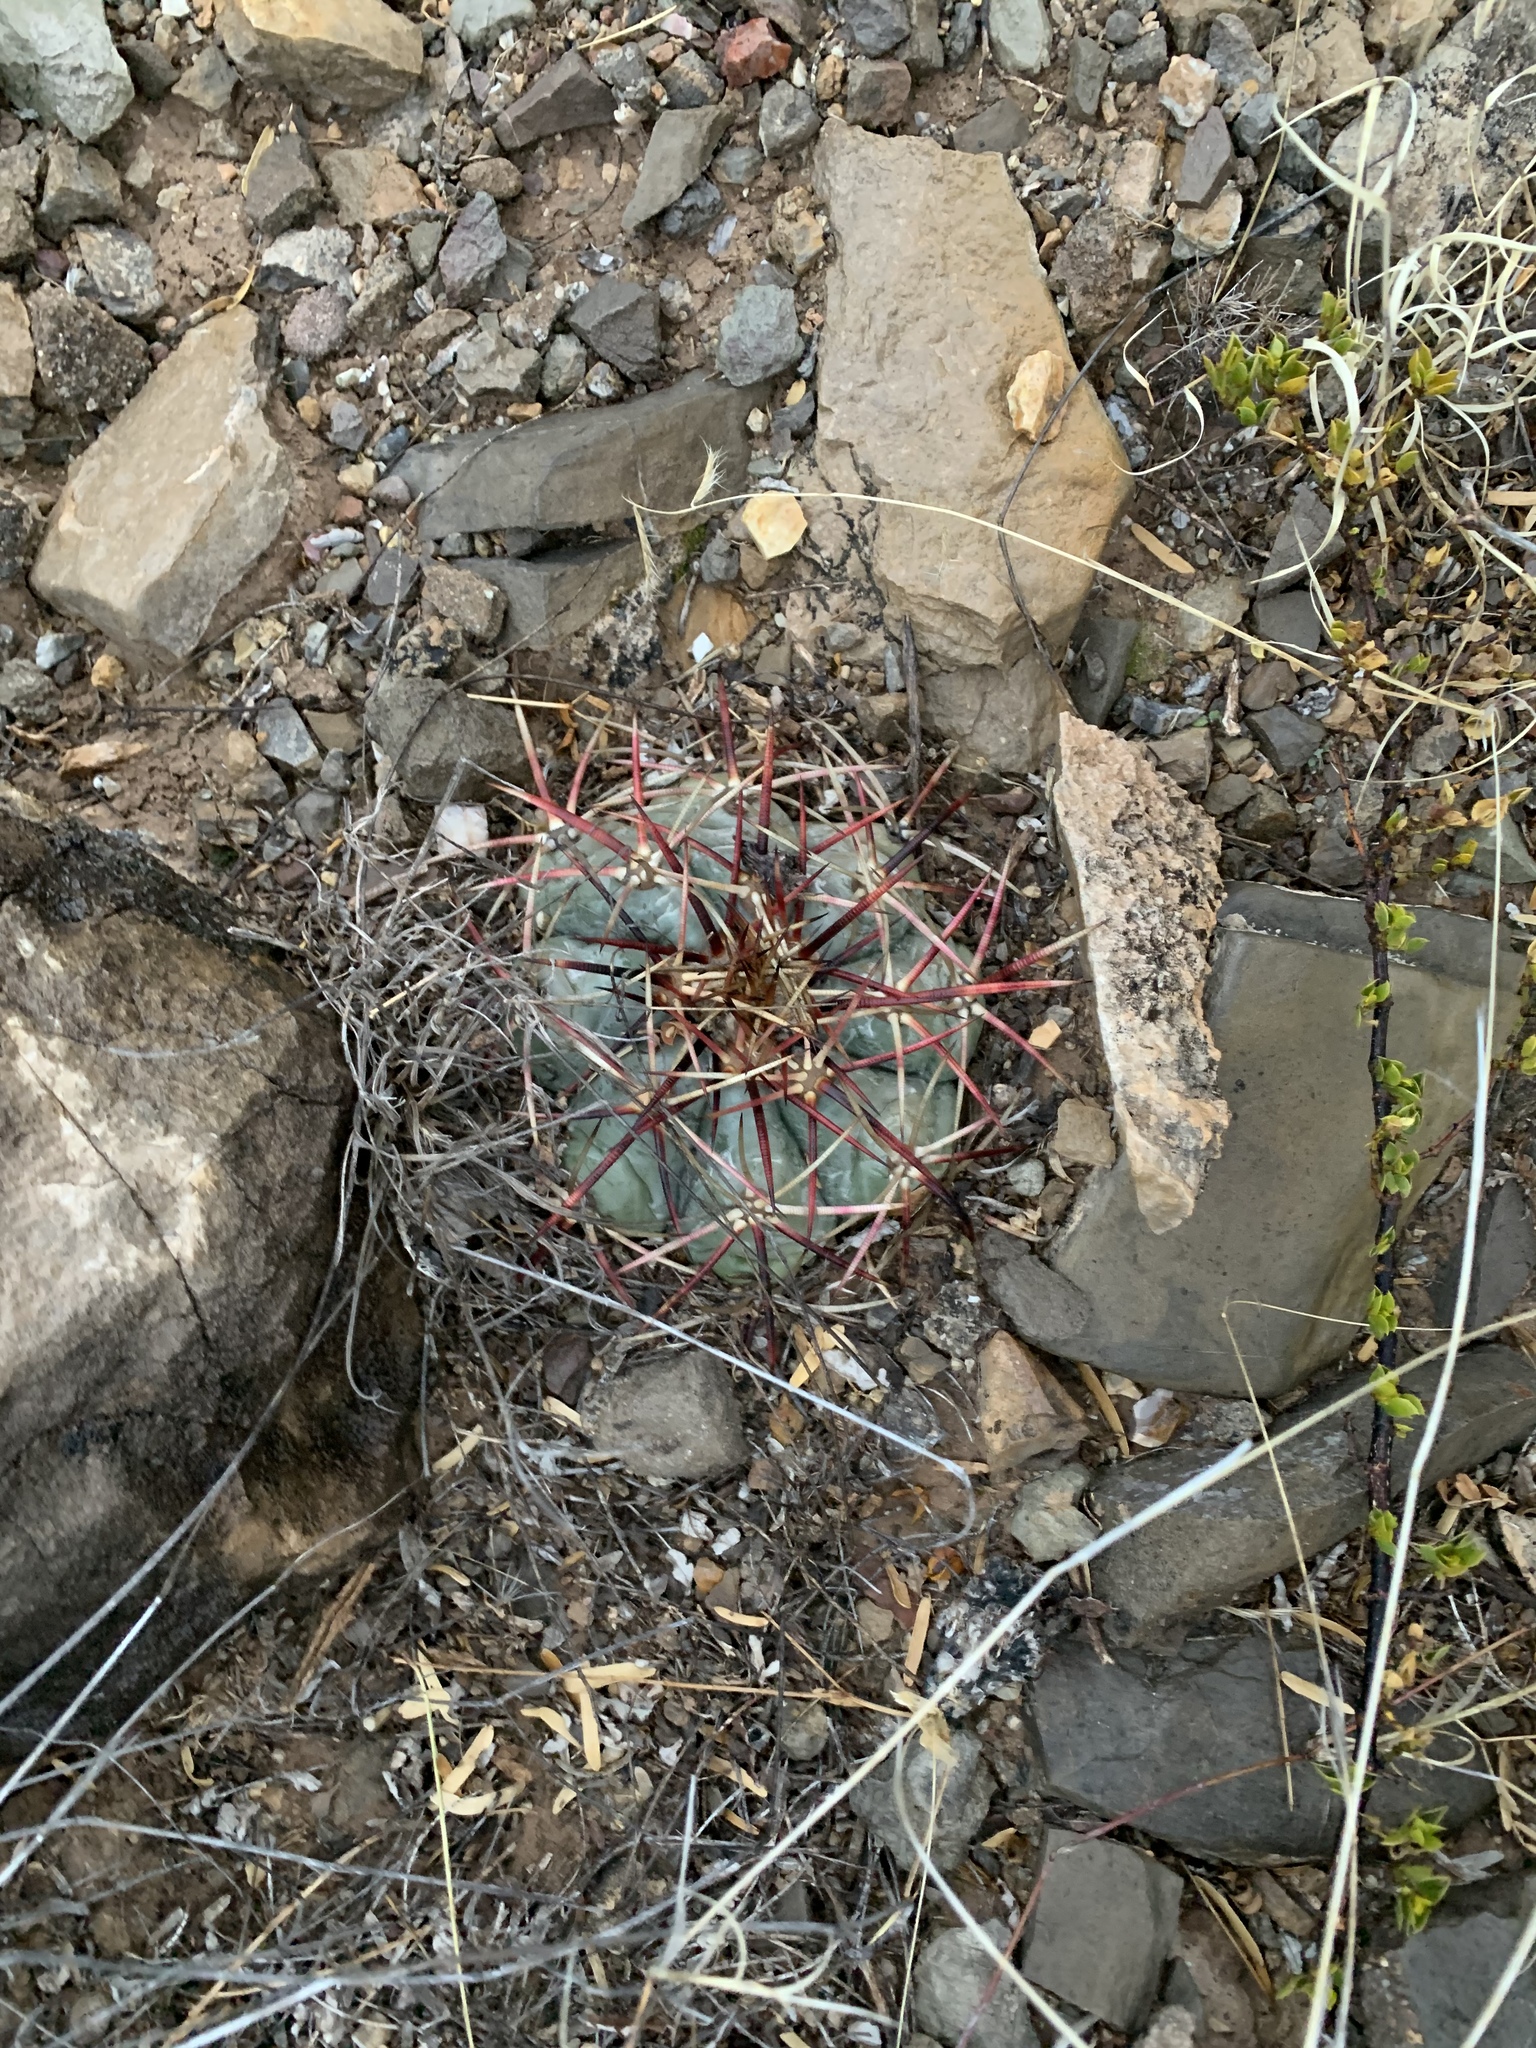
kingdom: Plantae
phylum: Tracheophyta
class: Magnoliopsida
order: Caryophyllales
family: Cactaceae
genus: Echinocactus
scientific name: Echinocactus horizonthalonius
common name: Devilshead
